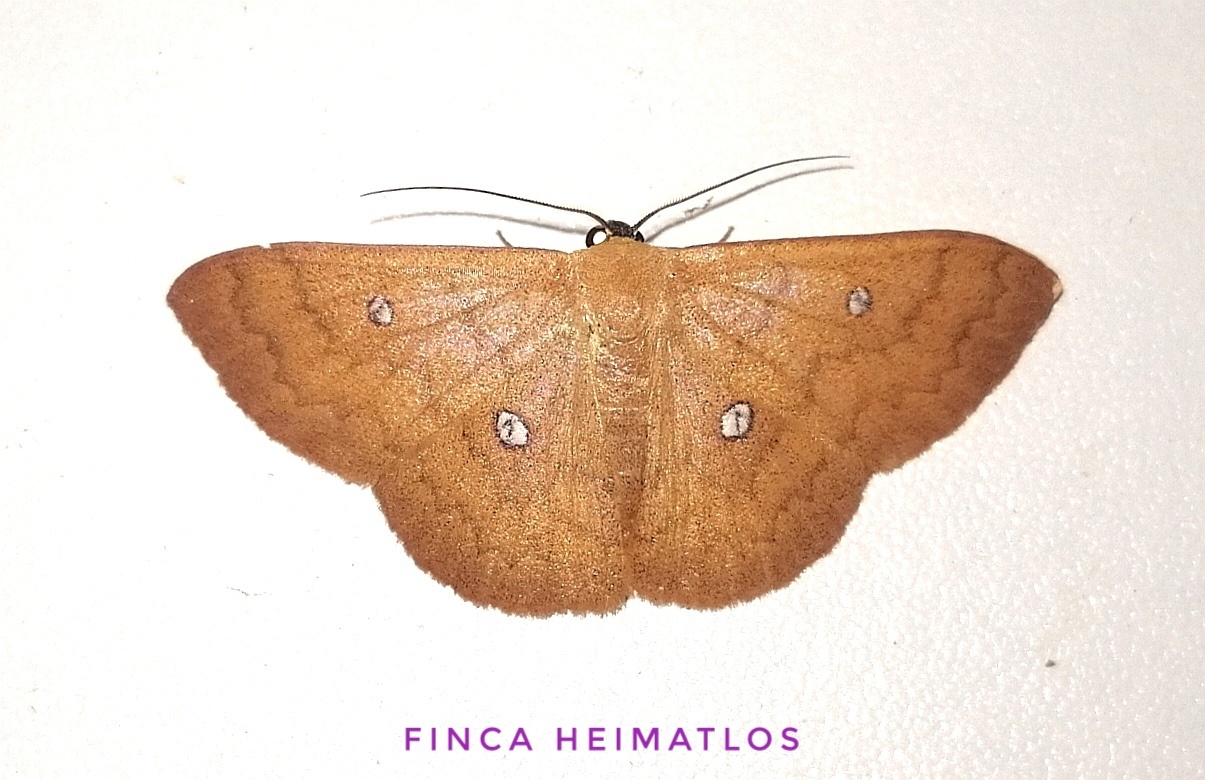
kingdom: Animalia
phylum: Arthropoda
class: Insecta
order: Lepidoptera
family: Geometridae
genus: Semaeopus
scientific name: Semaeopus illimitata
